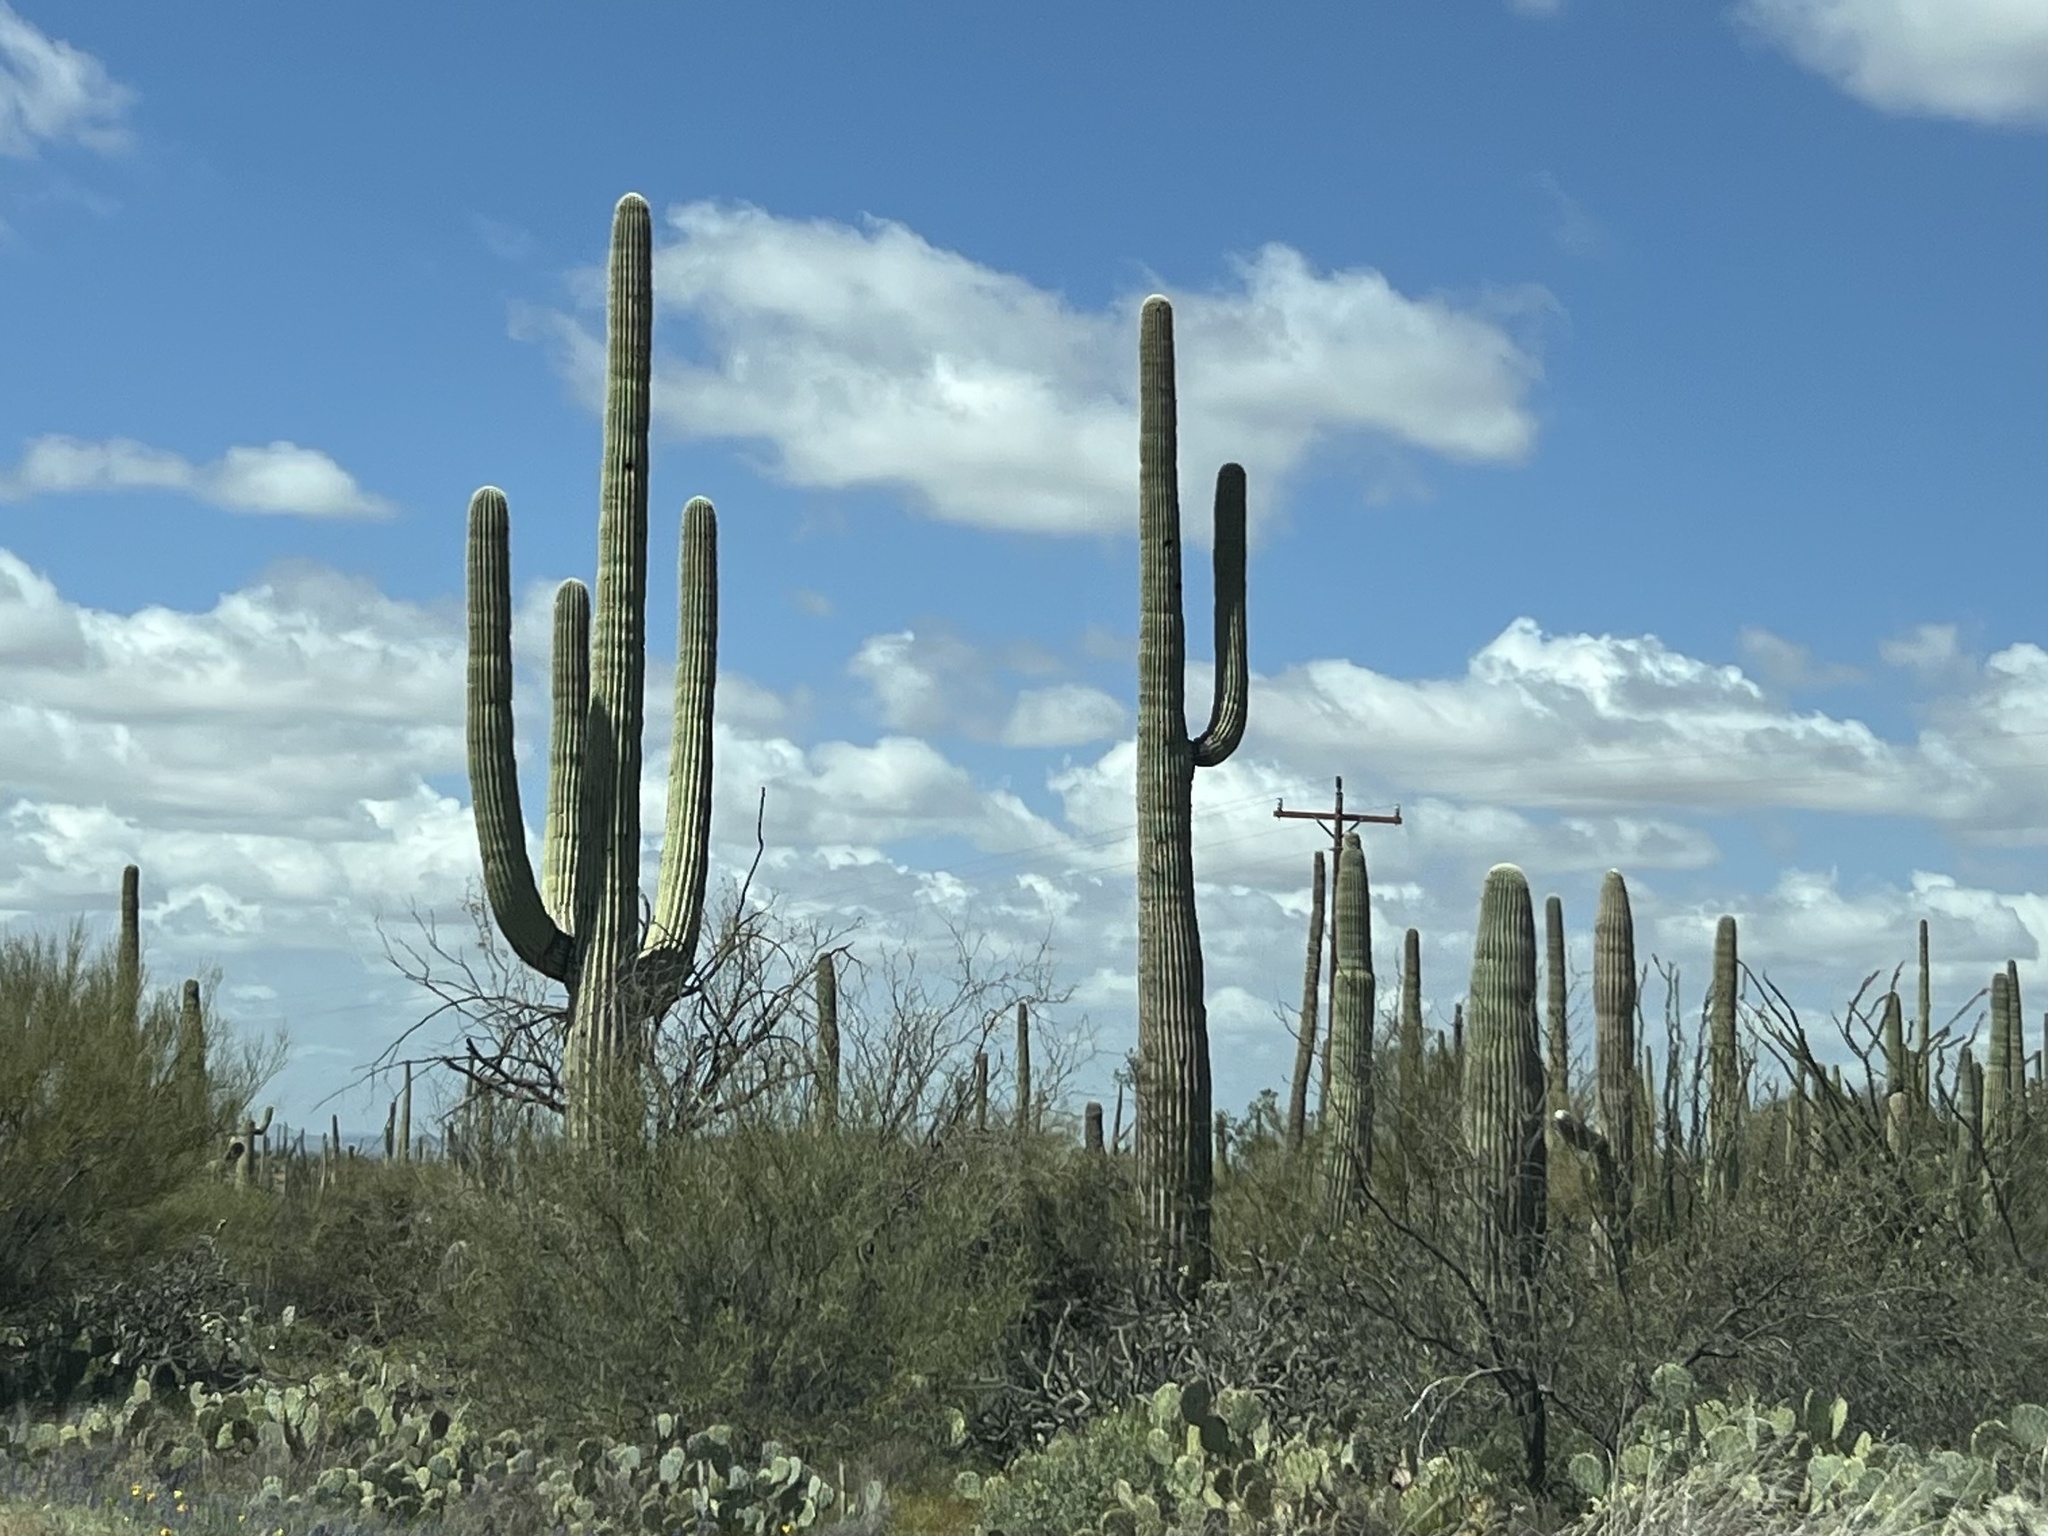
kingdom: Plantae
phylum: Tracheophyta
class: Magnoliopsida
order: Caryophyllales
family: Cactaceae
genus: Carnegiea
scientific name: Carnegiea gigantea
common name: Saguaro
